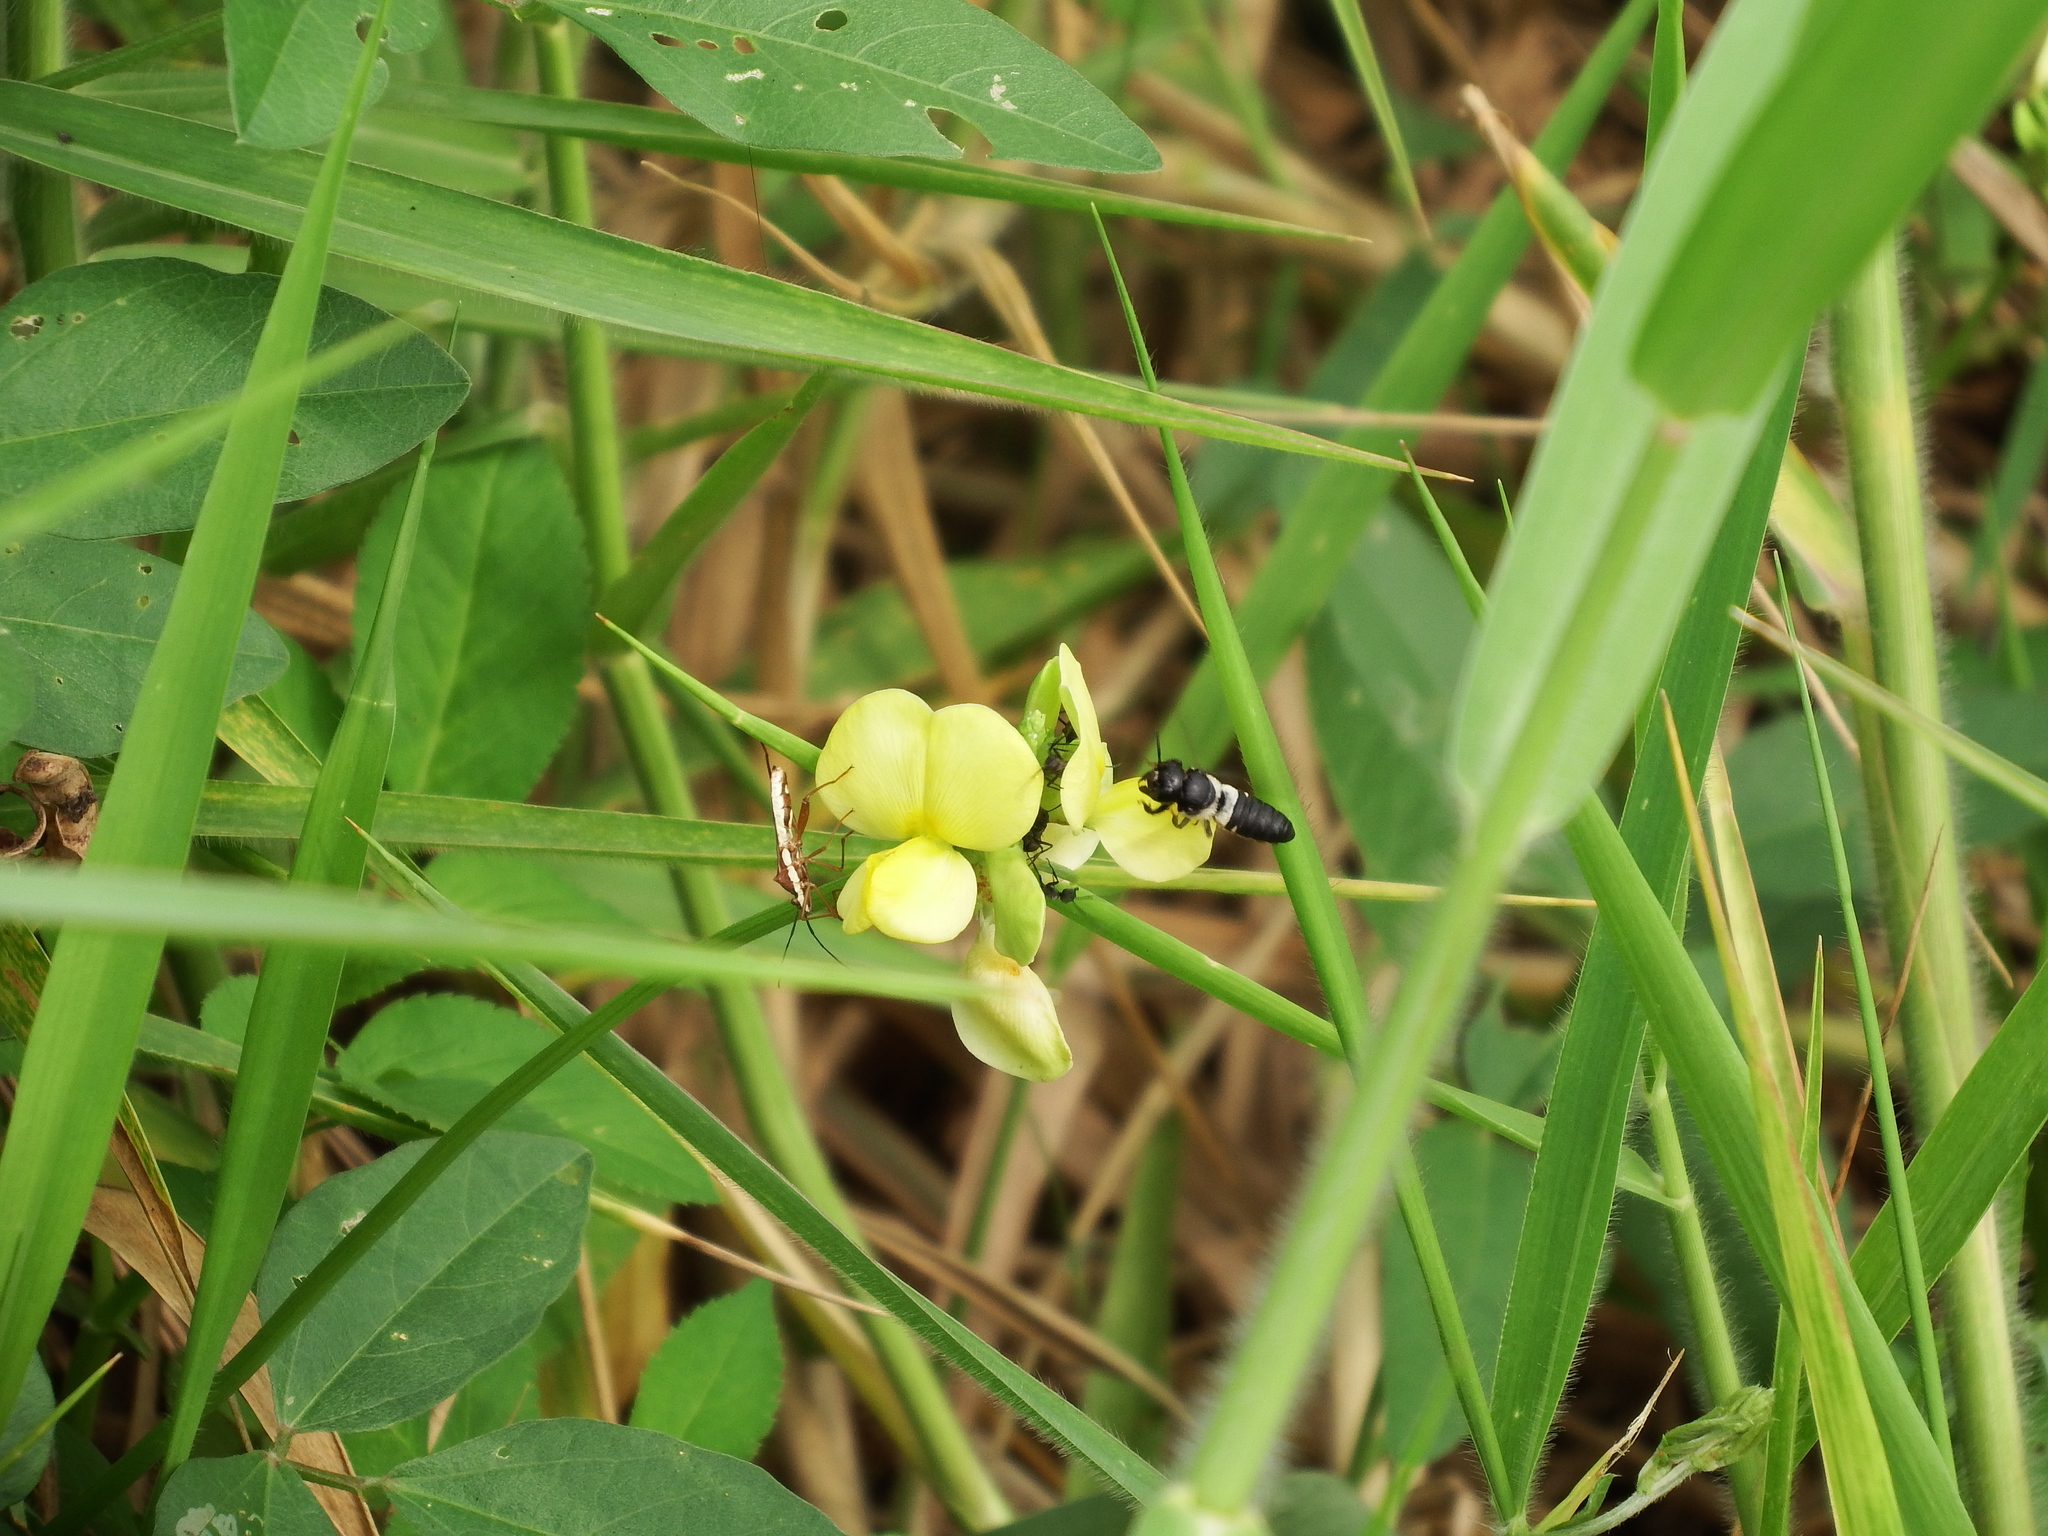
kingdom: Plantae
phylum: Tracheophyta
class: Magnoliopsida
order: Fabales
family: Fabaceae
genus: Vigna
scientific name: Vigna luteola
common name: Hairypod cowpea
